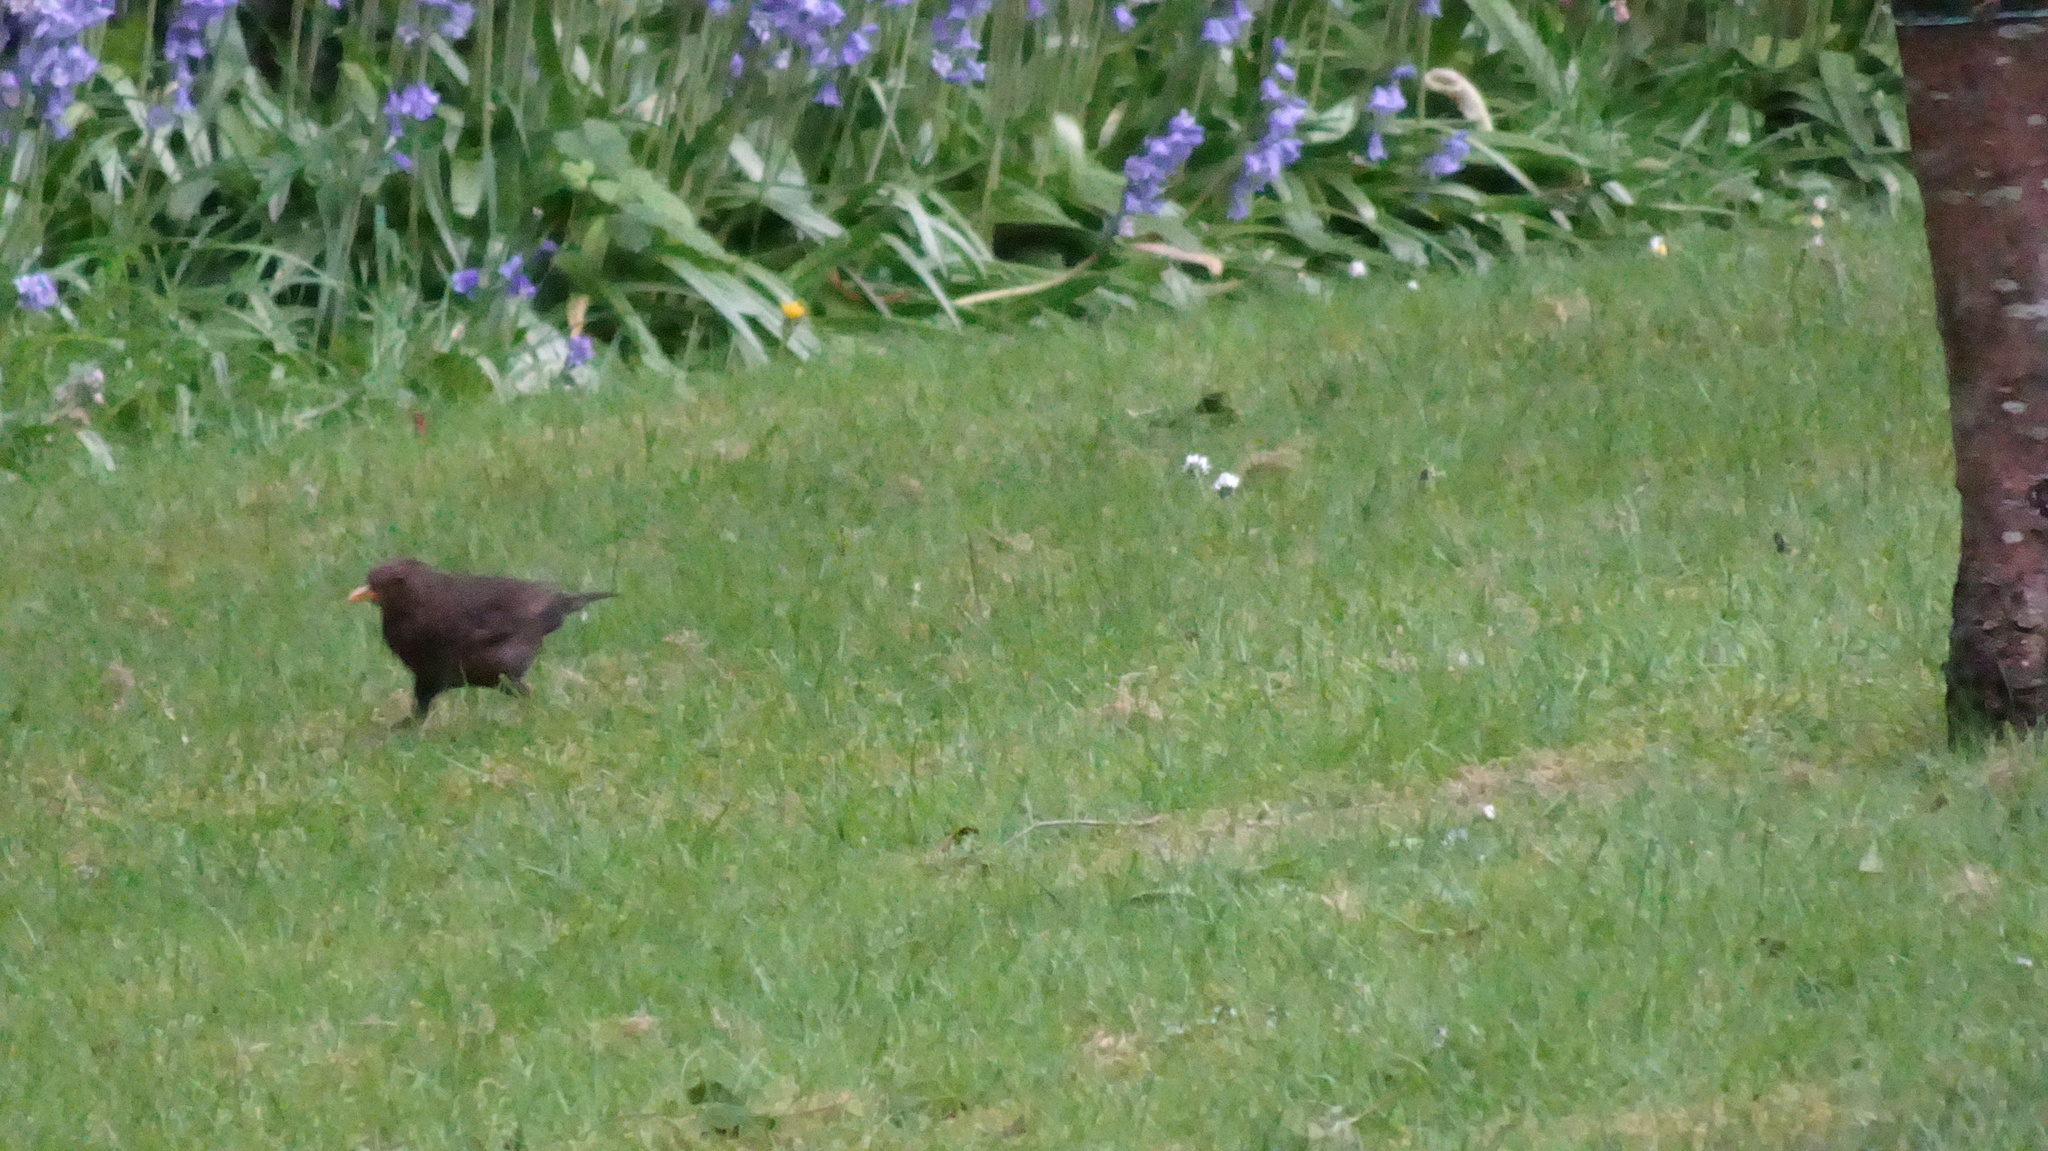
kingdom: Animalia
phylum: Chordata
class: Aves
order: Passeriformes
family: Turdidae
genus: Turdus
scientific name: Turdus merula
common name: Common blackbird
